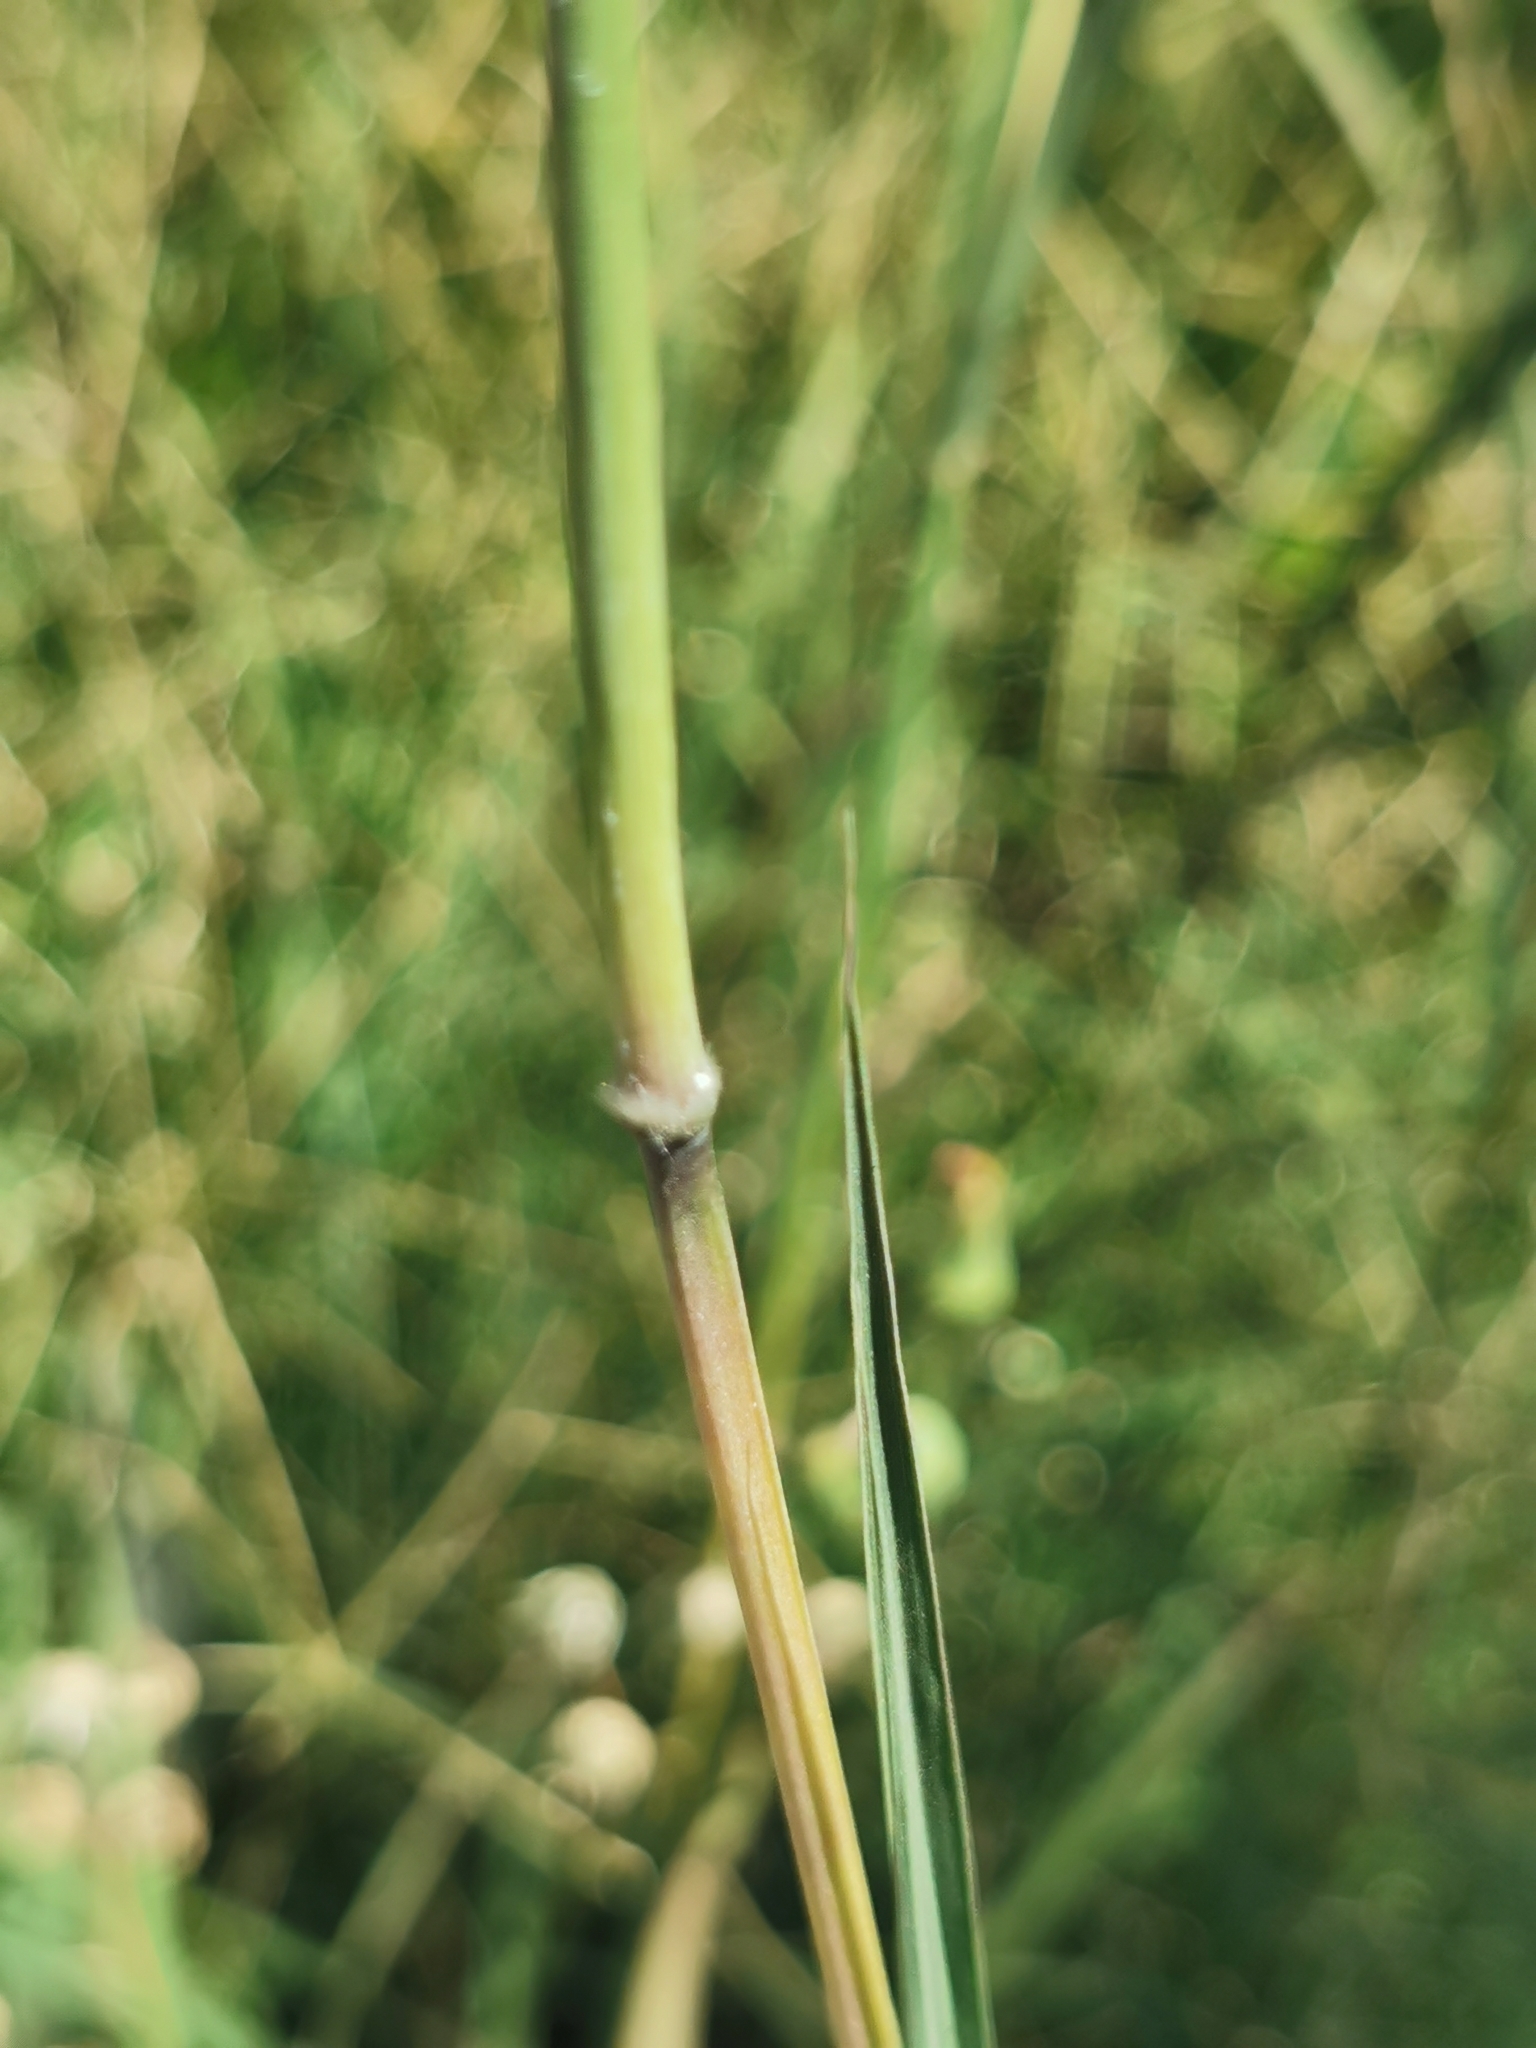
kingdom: Plantae
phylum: Tracheophyta
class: Liliopsida
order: Poales
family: Poaceae
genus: Bothriochloa
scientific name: Bothriochloa barbinodis
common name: Cane bluestem
